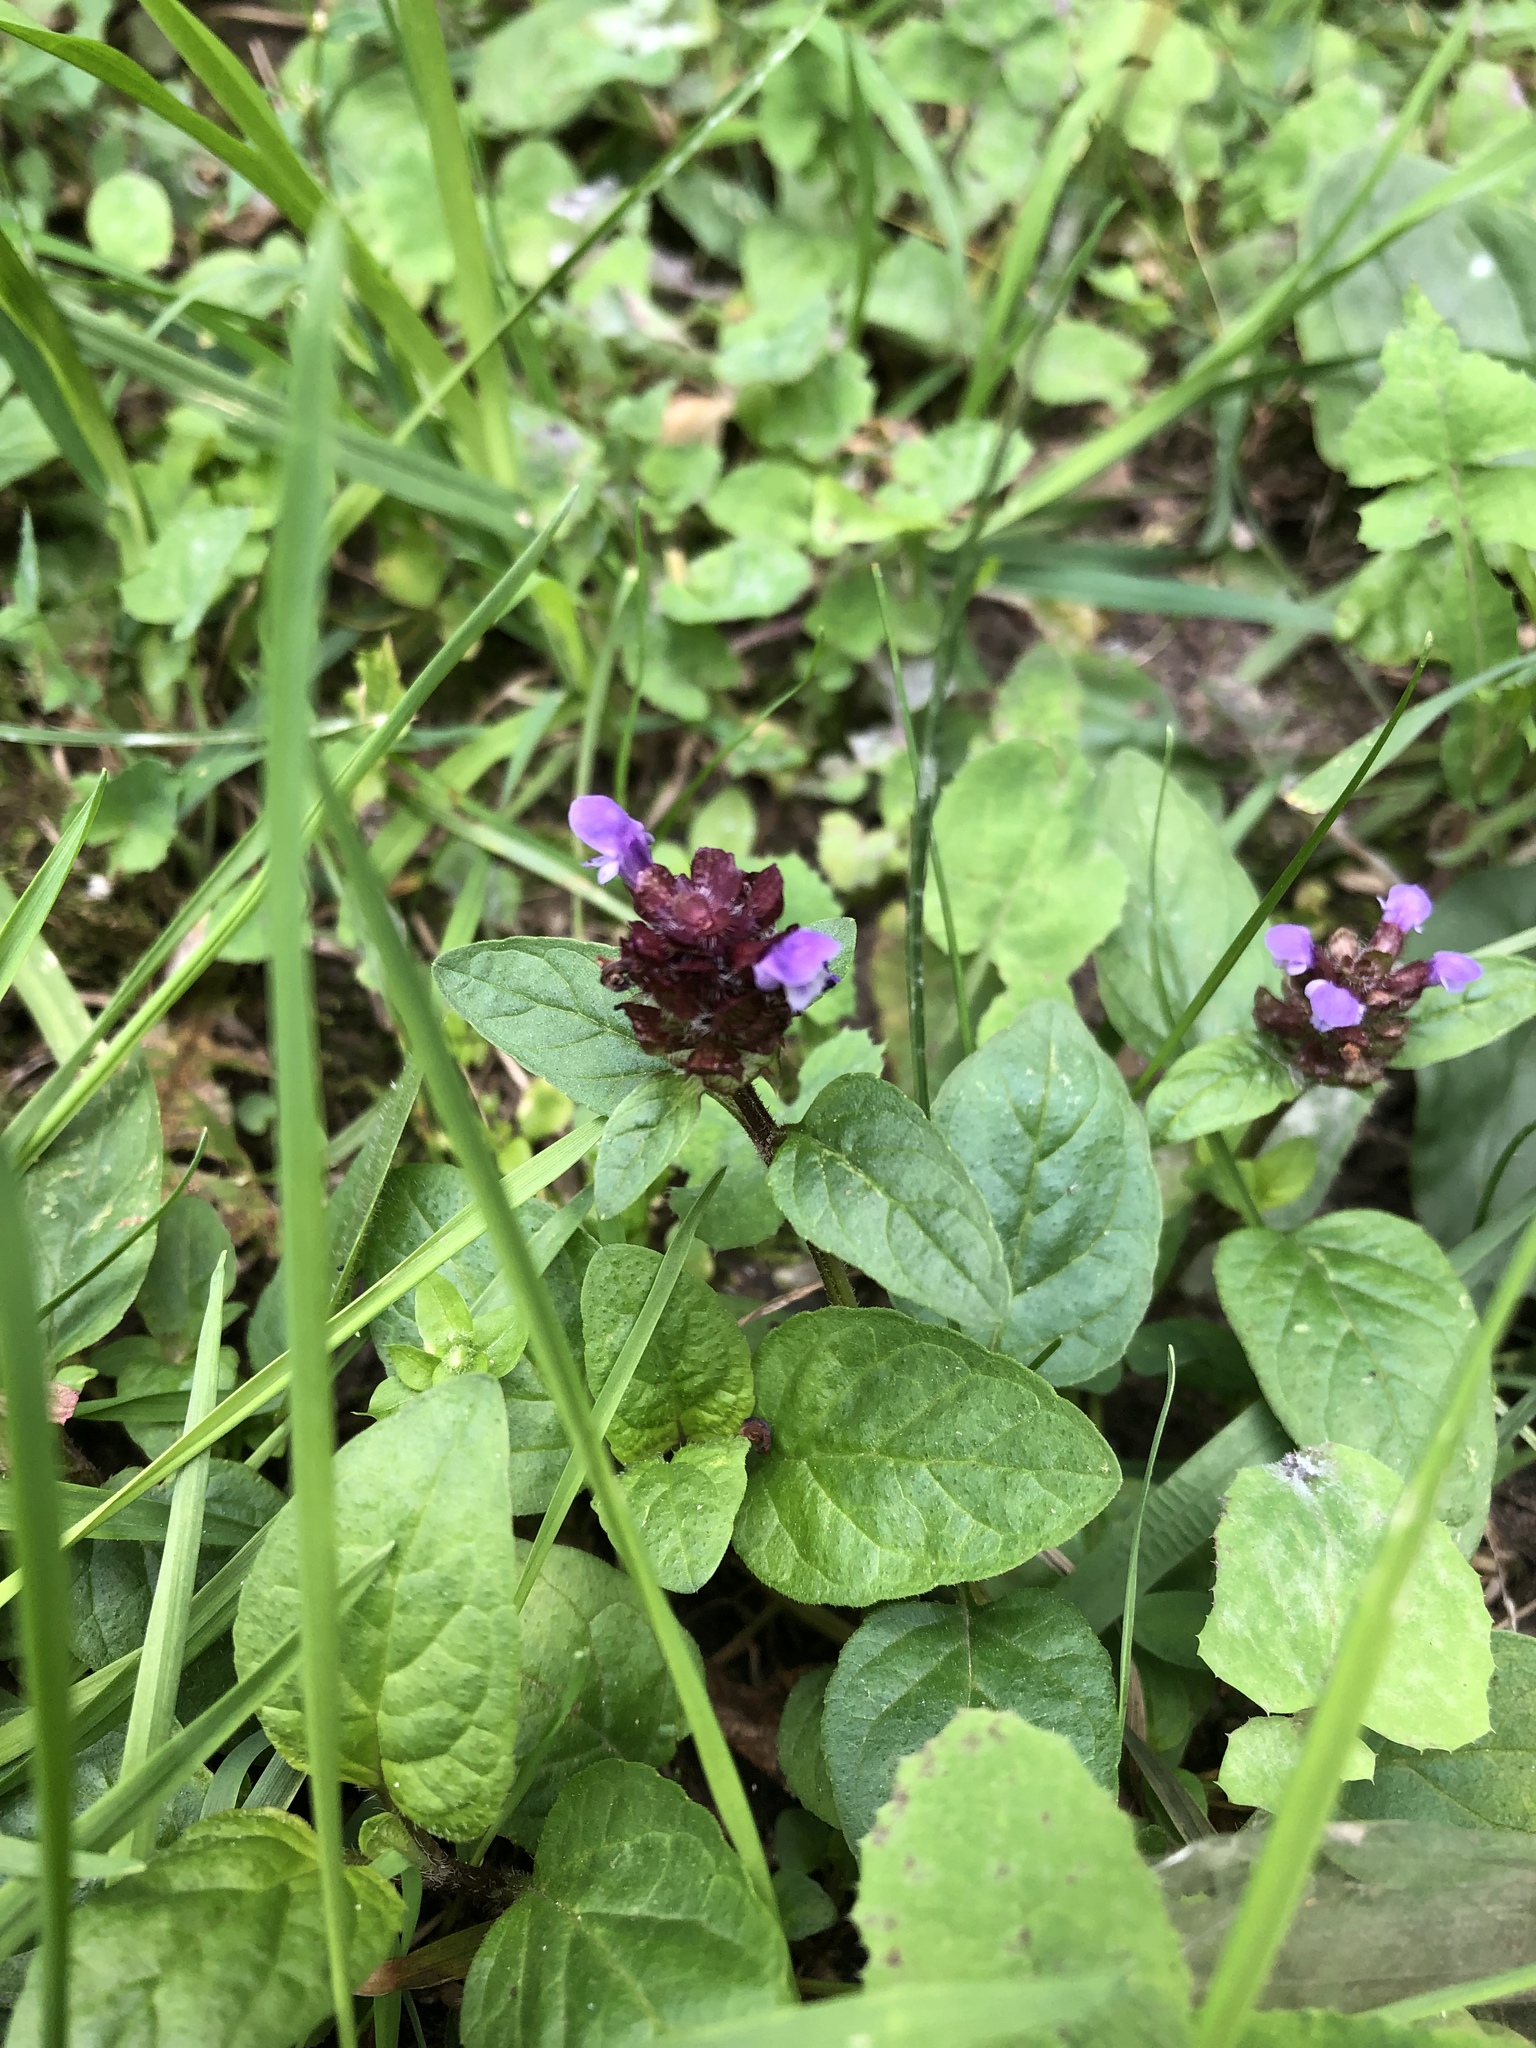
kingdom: Plantae
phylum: Tracheophyta
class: Magnoliopsida
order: Lamiales
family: Lamiaceae
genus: Prunella
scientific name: Prunella vulgaris
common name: Heal-all
